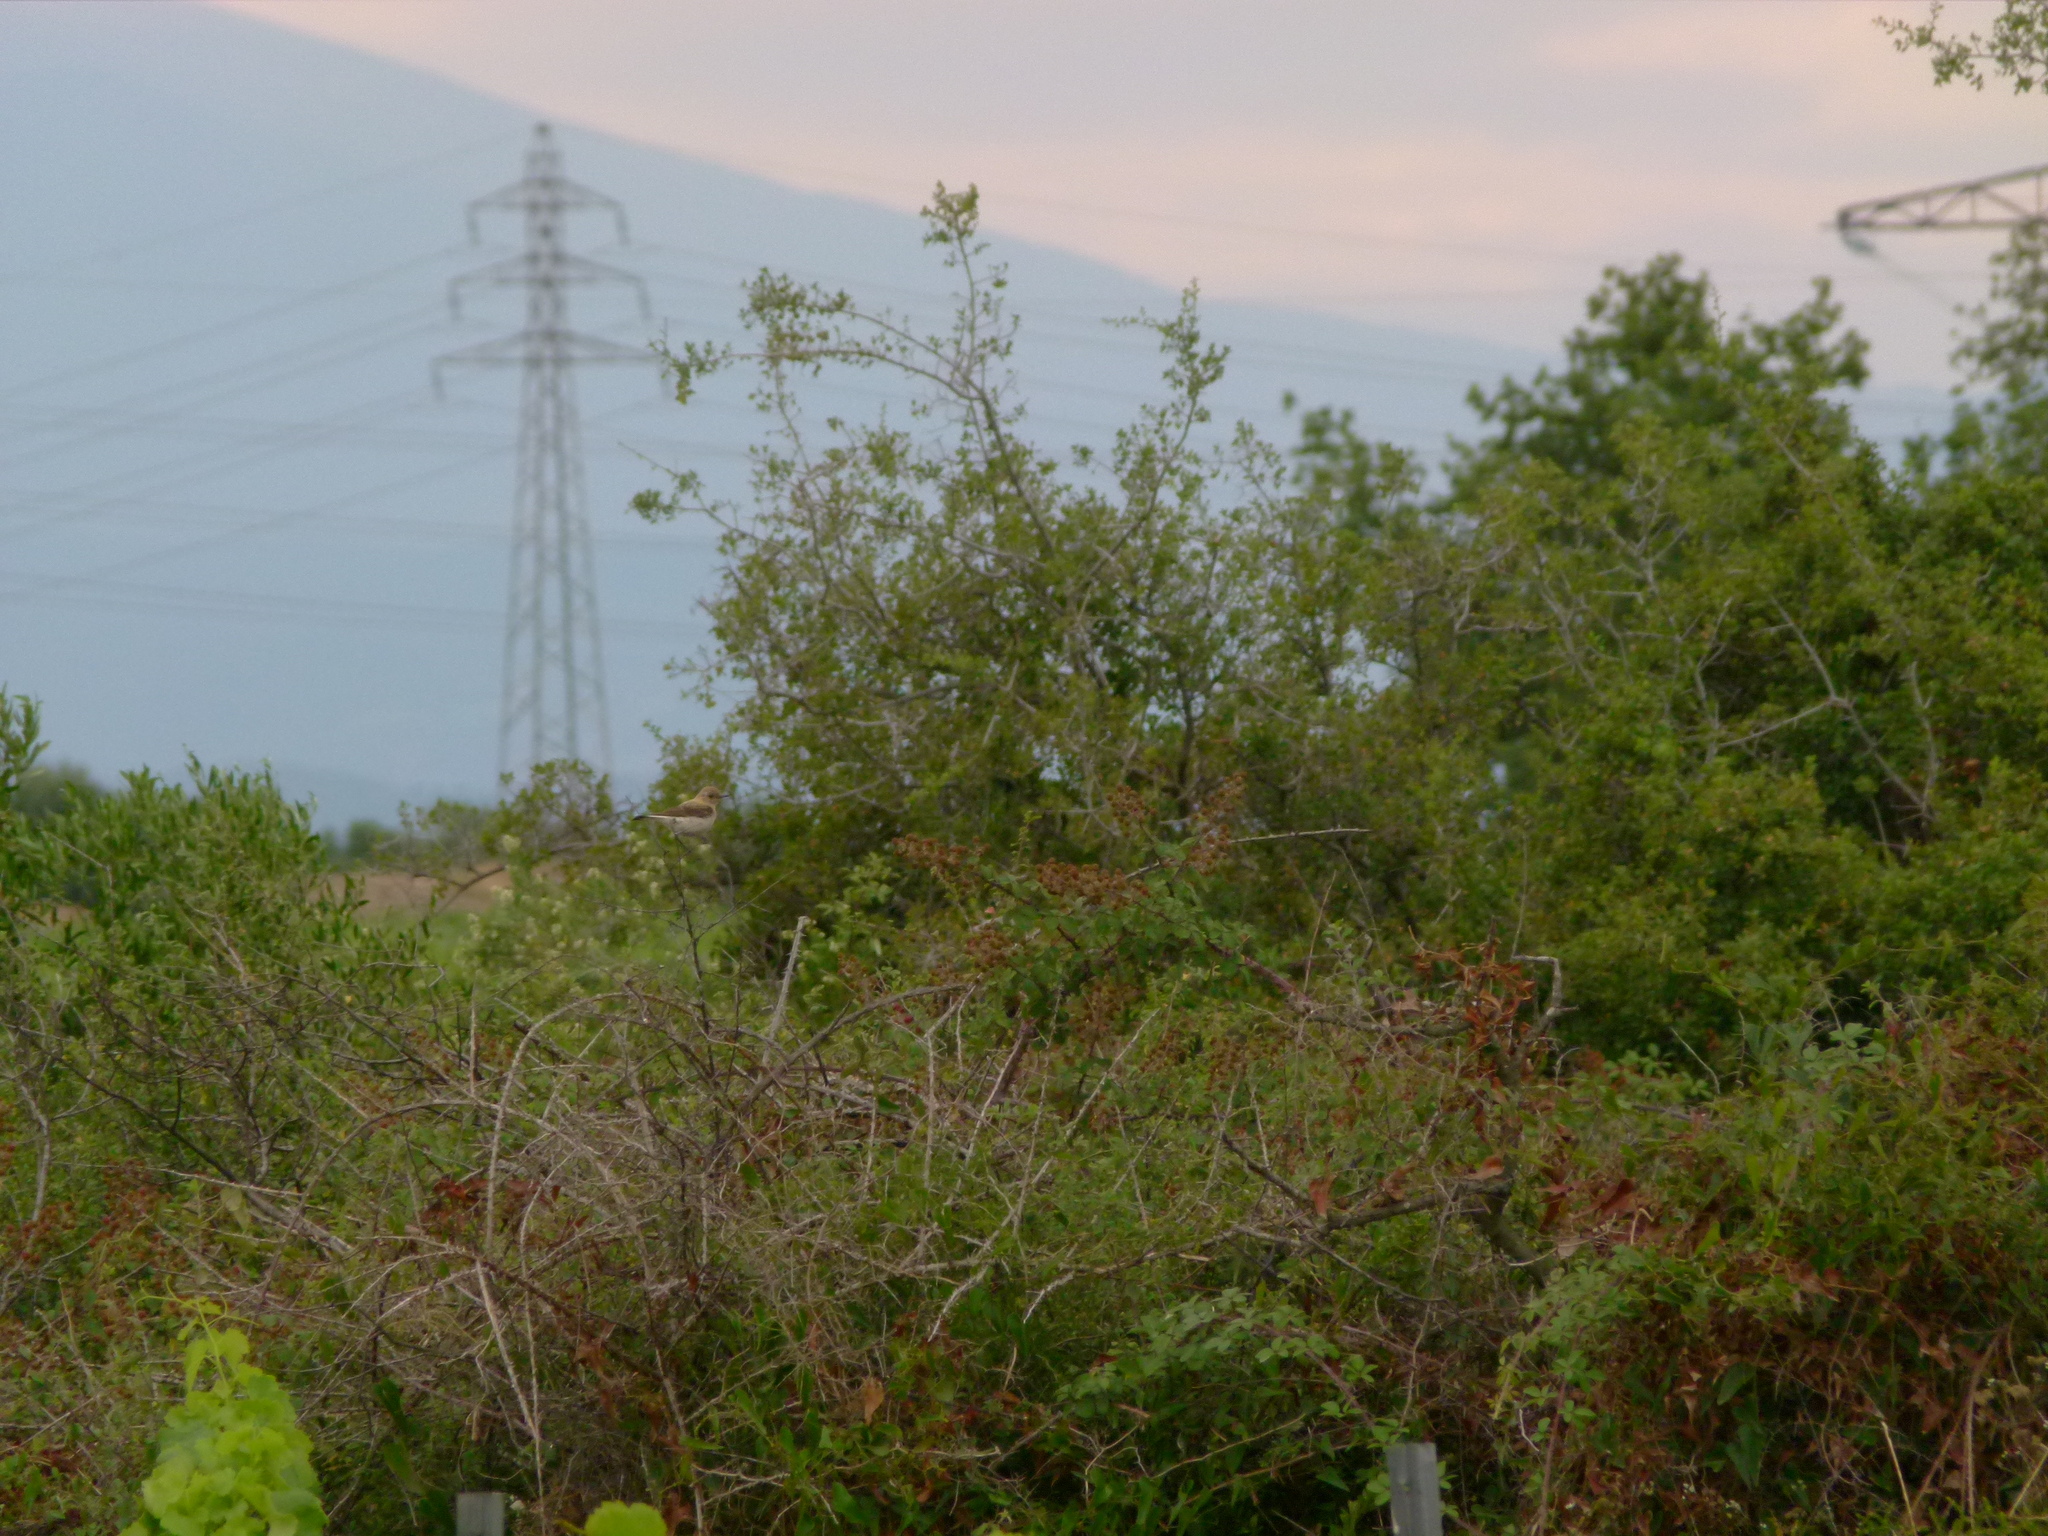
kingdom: Animalia
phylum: Chordata
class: Aves
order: Passeriformes
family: Muscicapidae
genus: Oenanthe
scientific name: Oenanthe hispanica
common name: Black-eared wheatear
